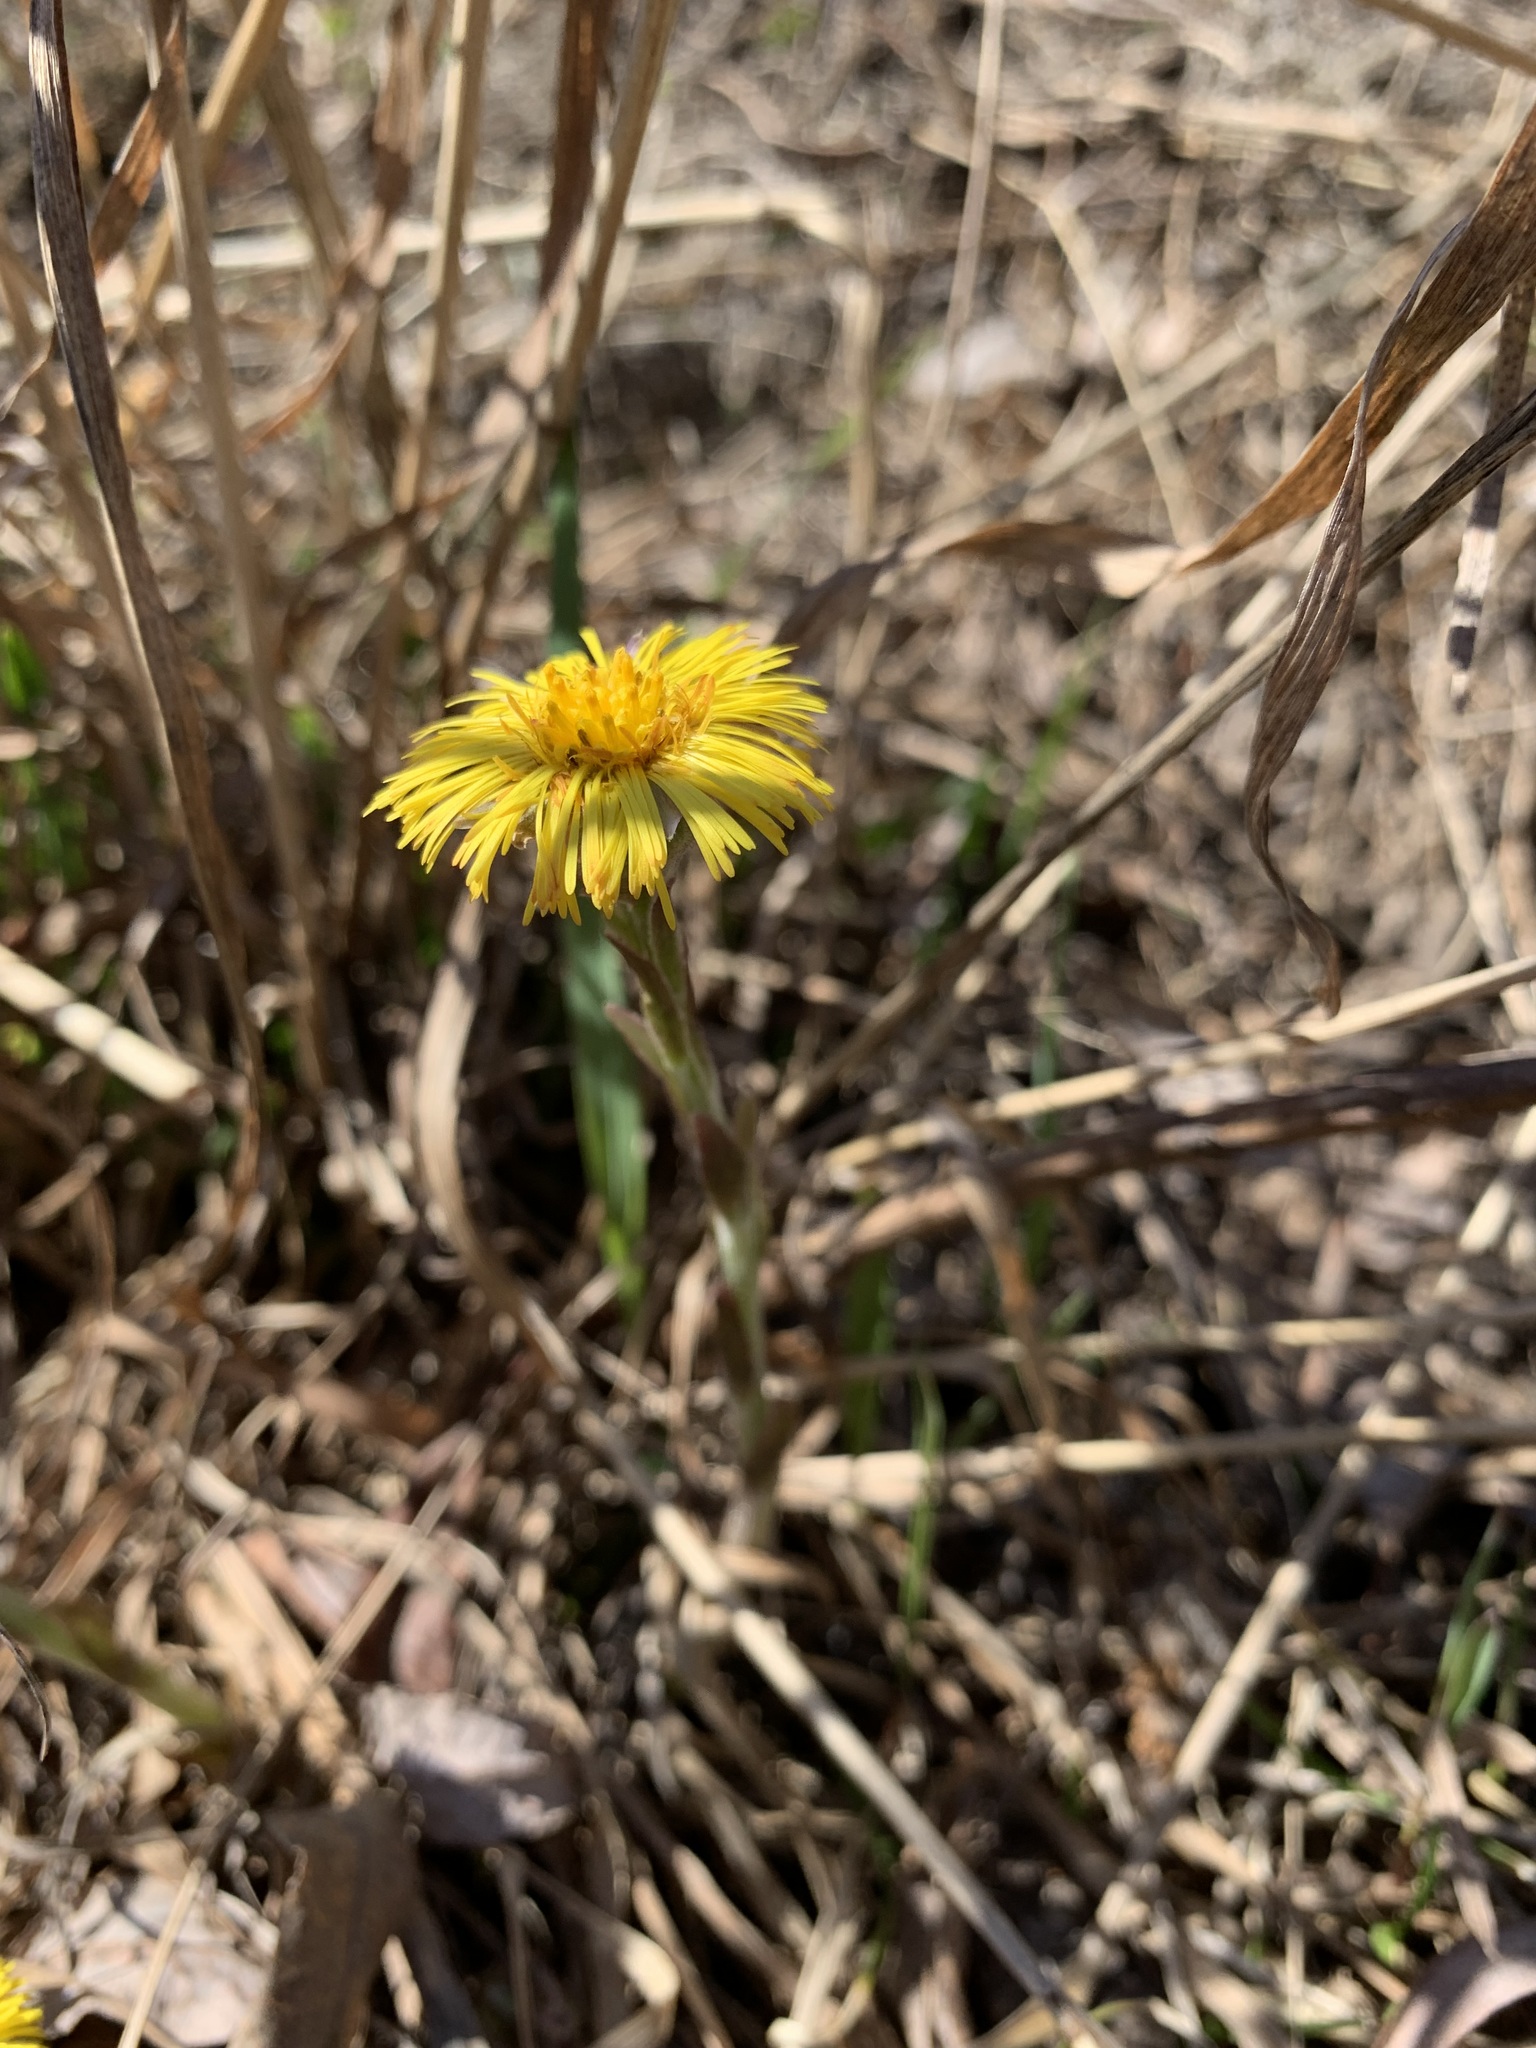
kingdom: Plantae
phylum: Tracheophyta
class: Magnoliopsida
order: Asterales
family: Asteraceae
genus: Tussilago
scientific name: Tussilago farfara
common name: Coltsfoot
